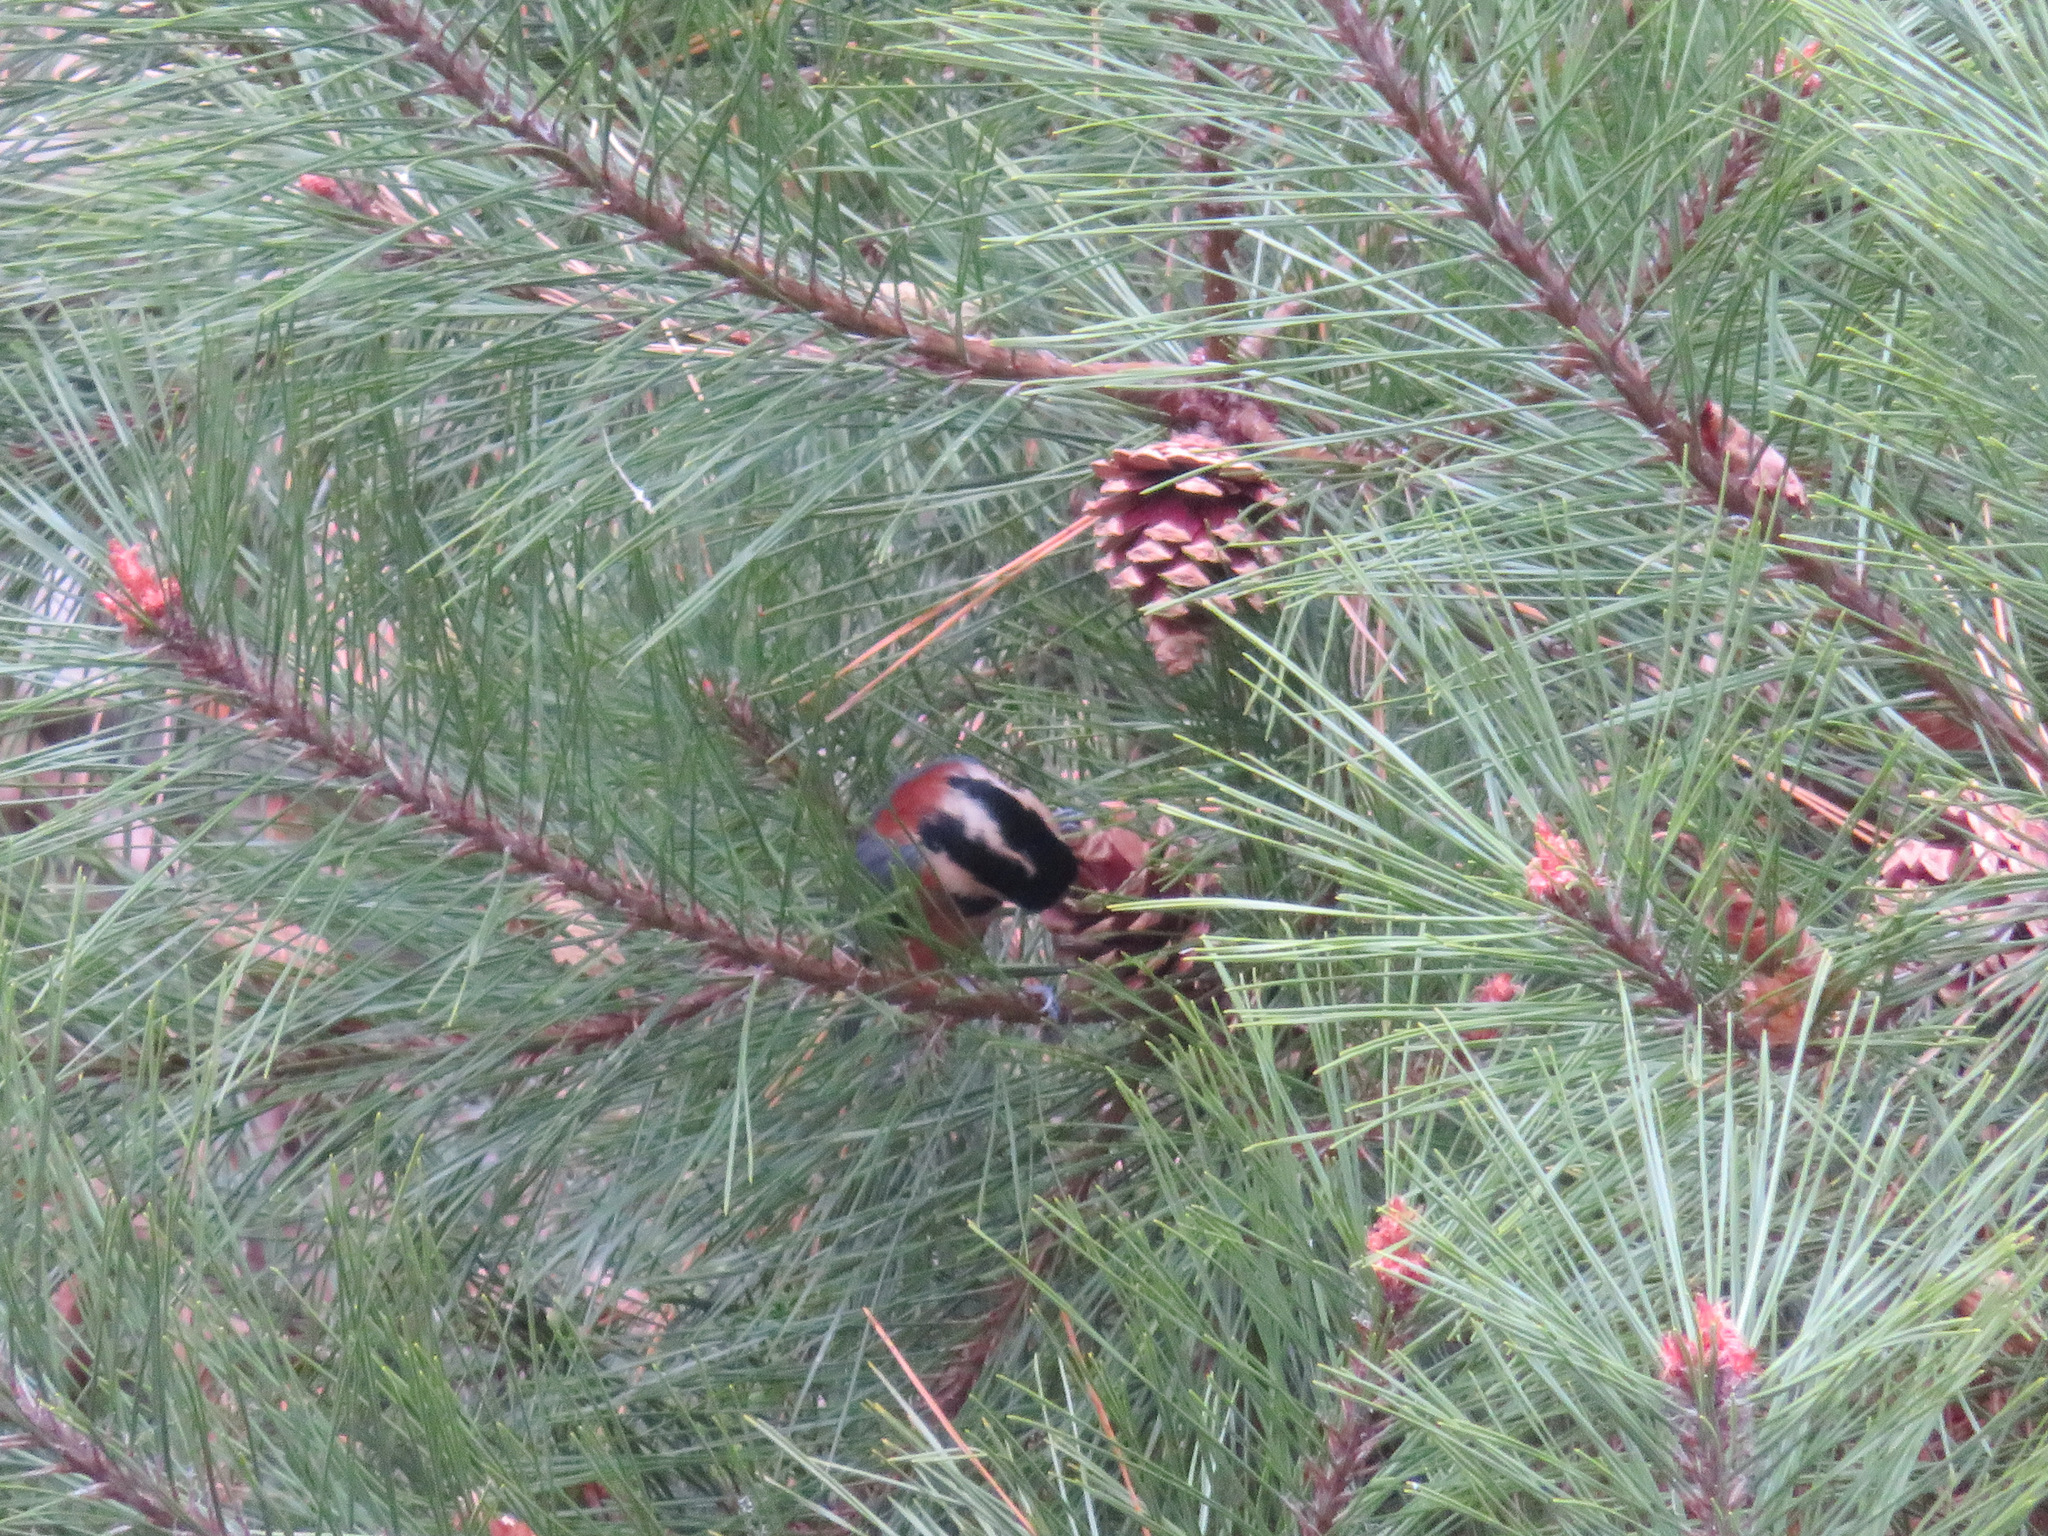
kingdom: Animalia
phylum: Chordata
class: Aves
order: Passeriformes
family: Paridae
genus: Poecile
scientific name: Poecile varius
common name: Varied tit
